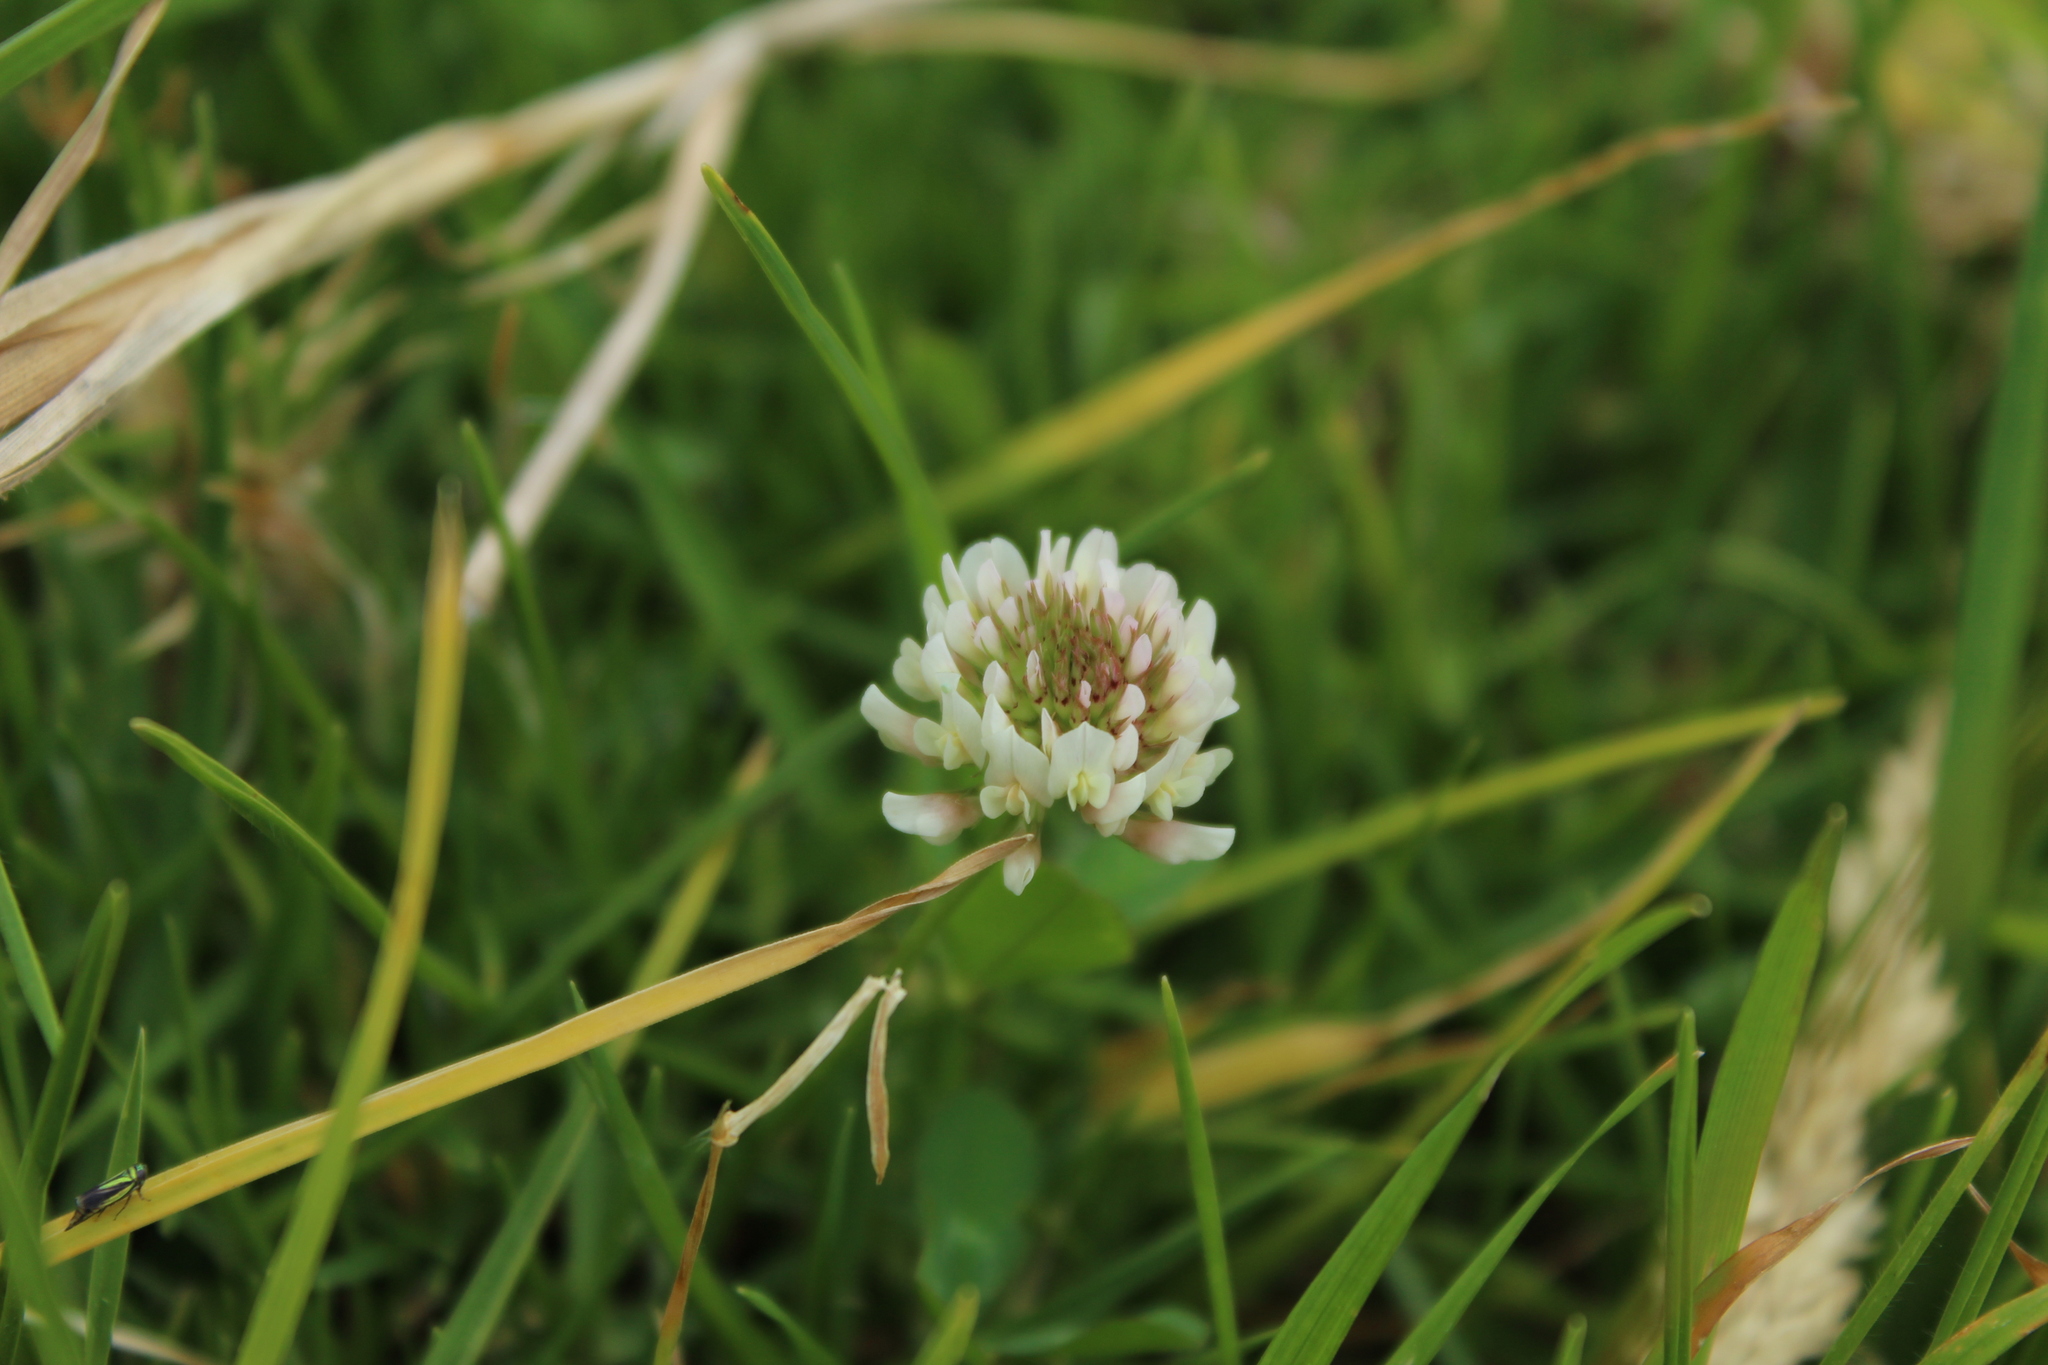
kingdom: Plantae
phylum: Tracheophyta
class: Magnoliopsida
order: Fabales
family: Fabaceae
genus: Trifolium
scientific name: Trifolium repens
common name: White clover
